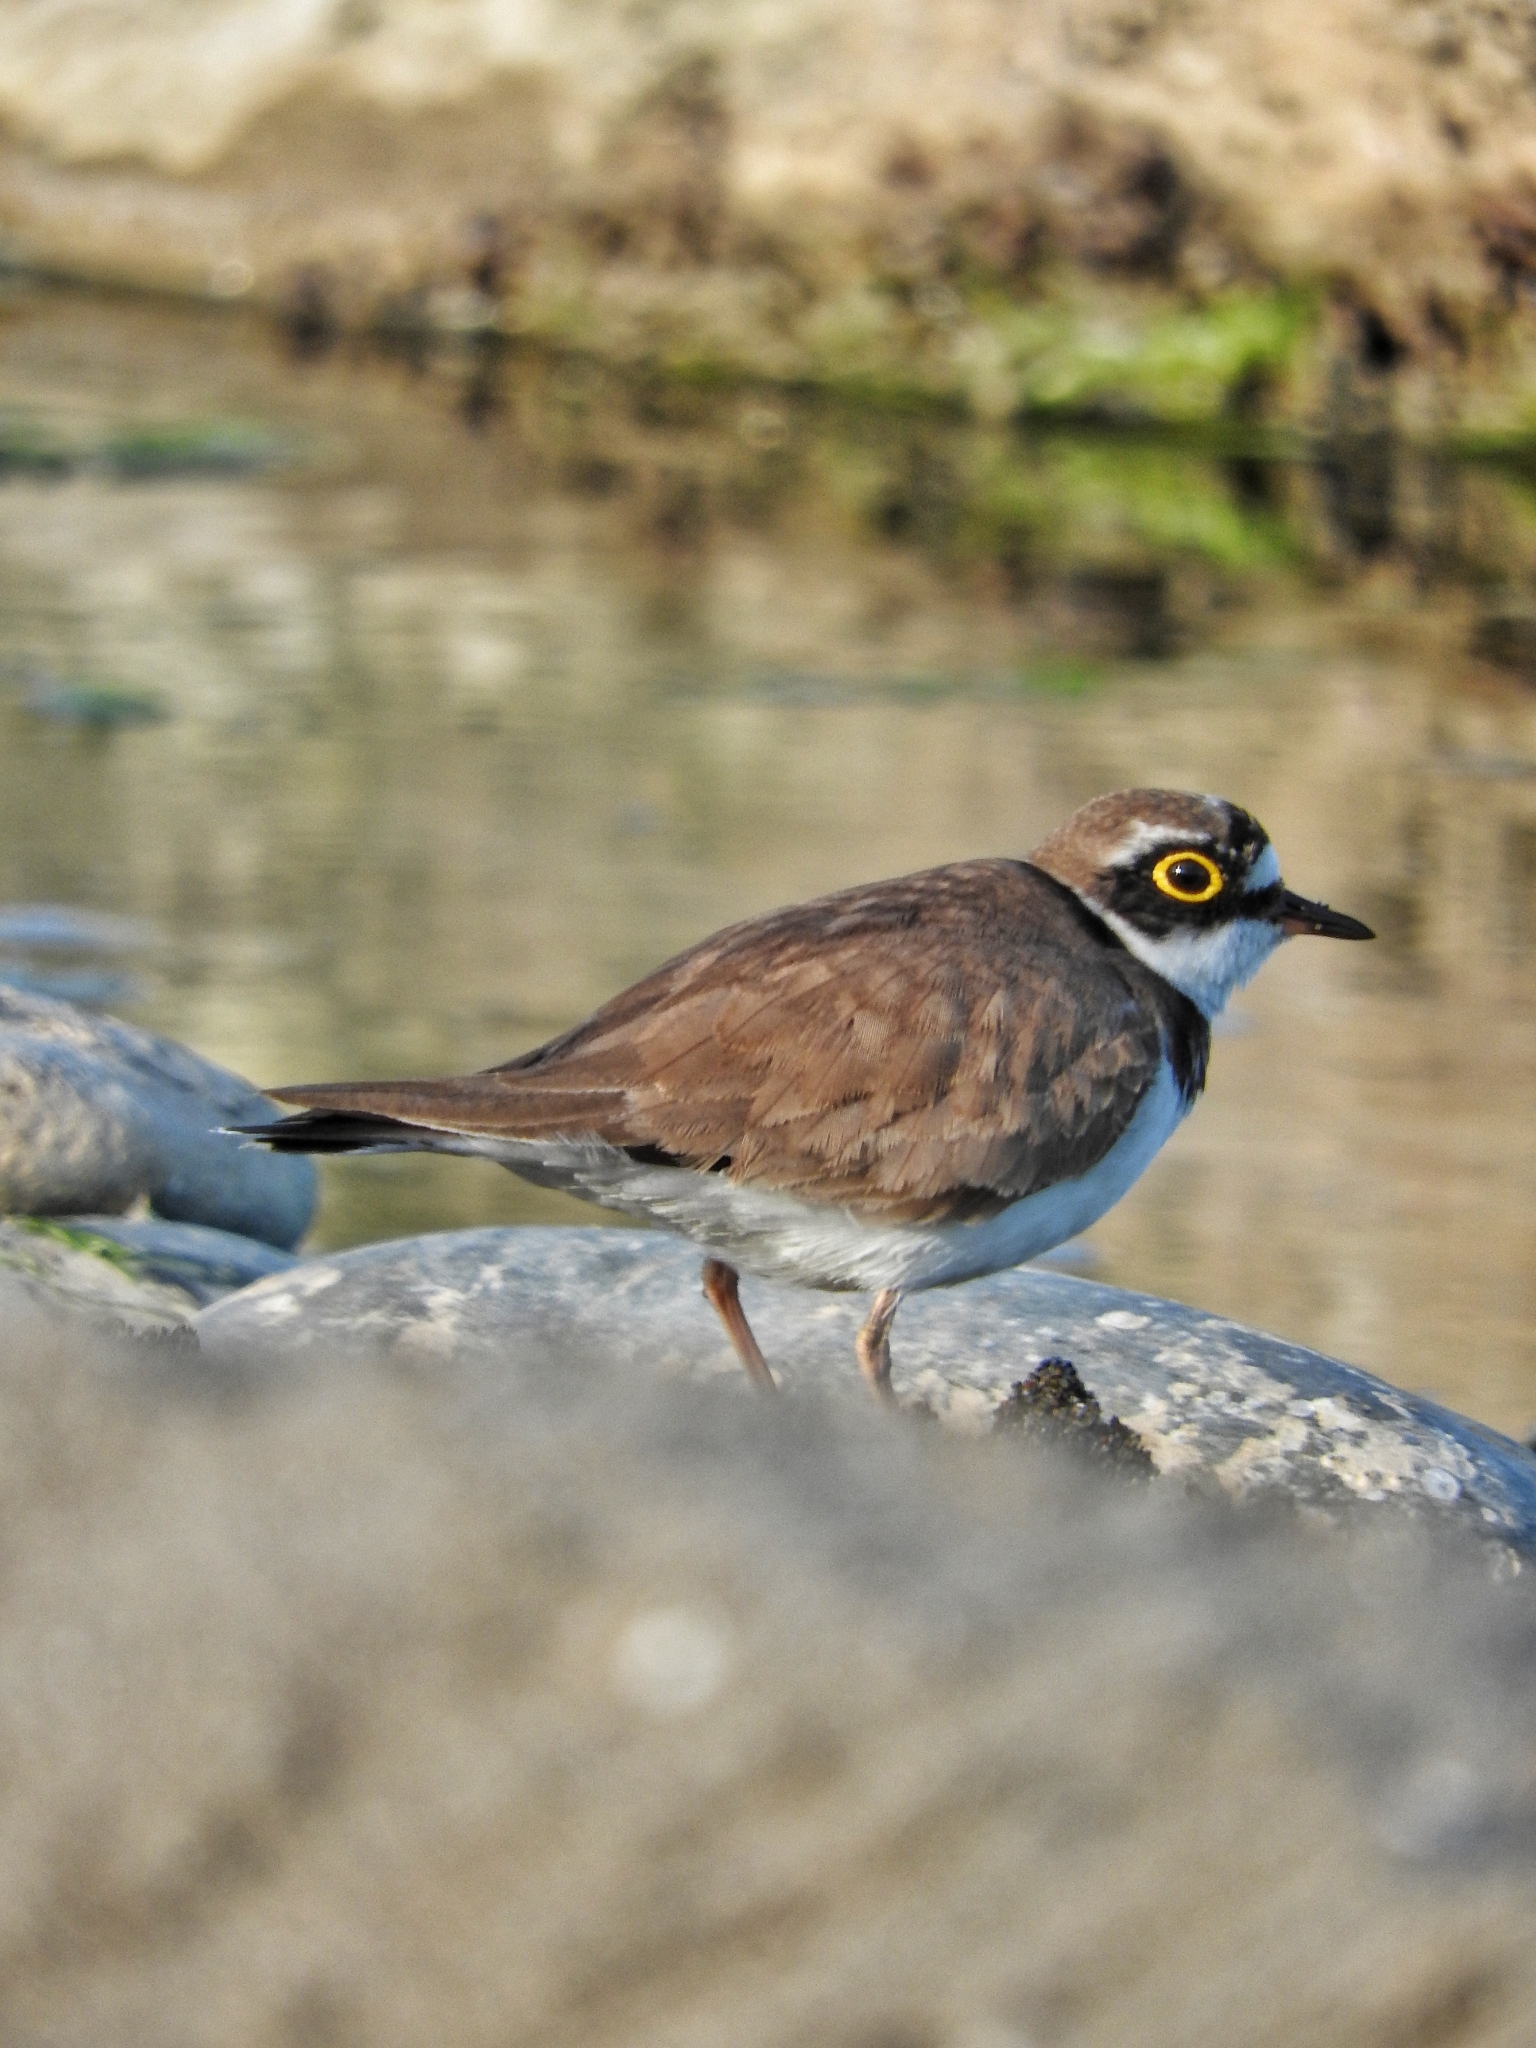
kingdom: Animalia
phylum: Chordata
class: Aves
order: Charadriiformes
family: Charadriidae
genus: Charadrius
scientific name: Charadrius dubius
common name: Little ringed plover
